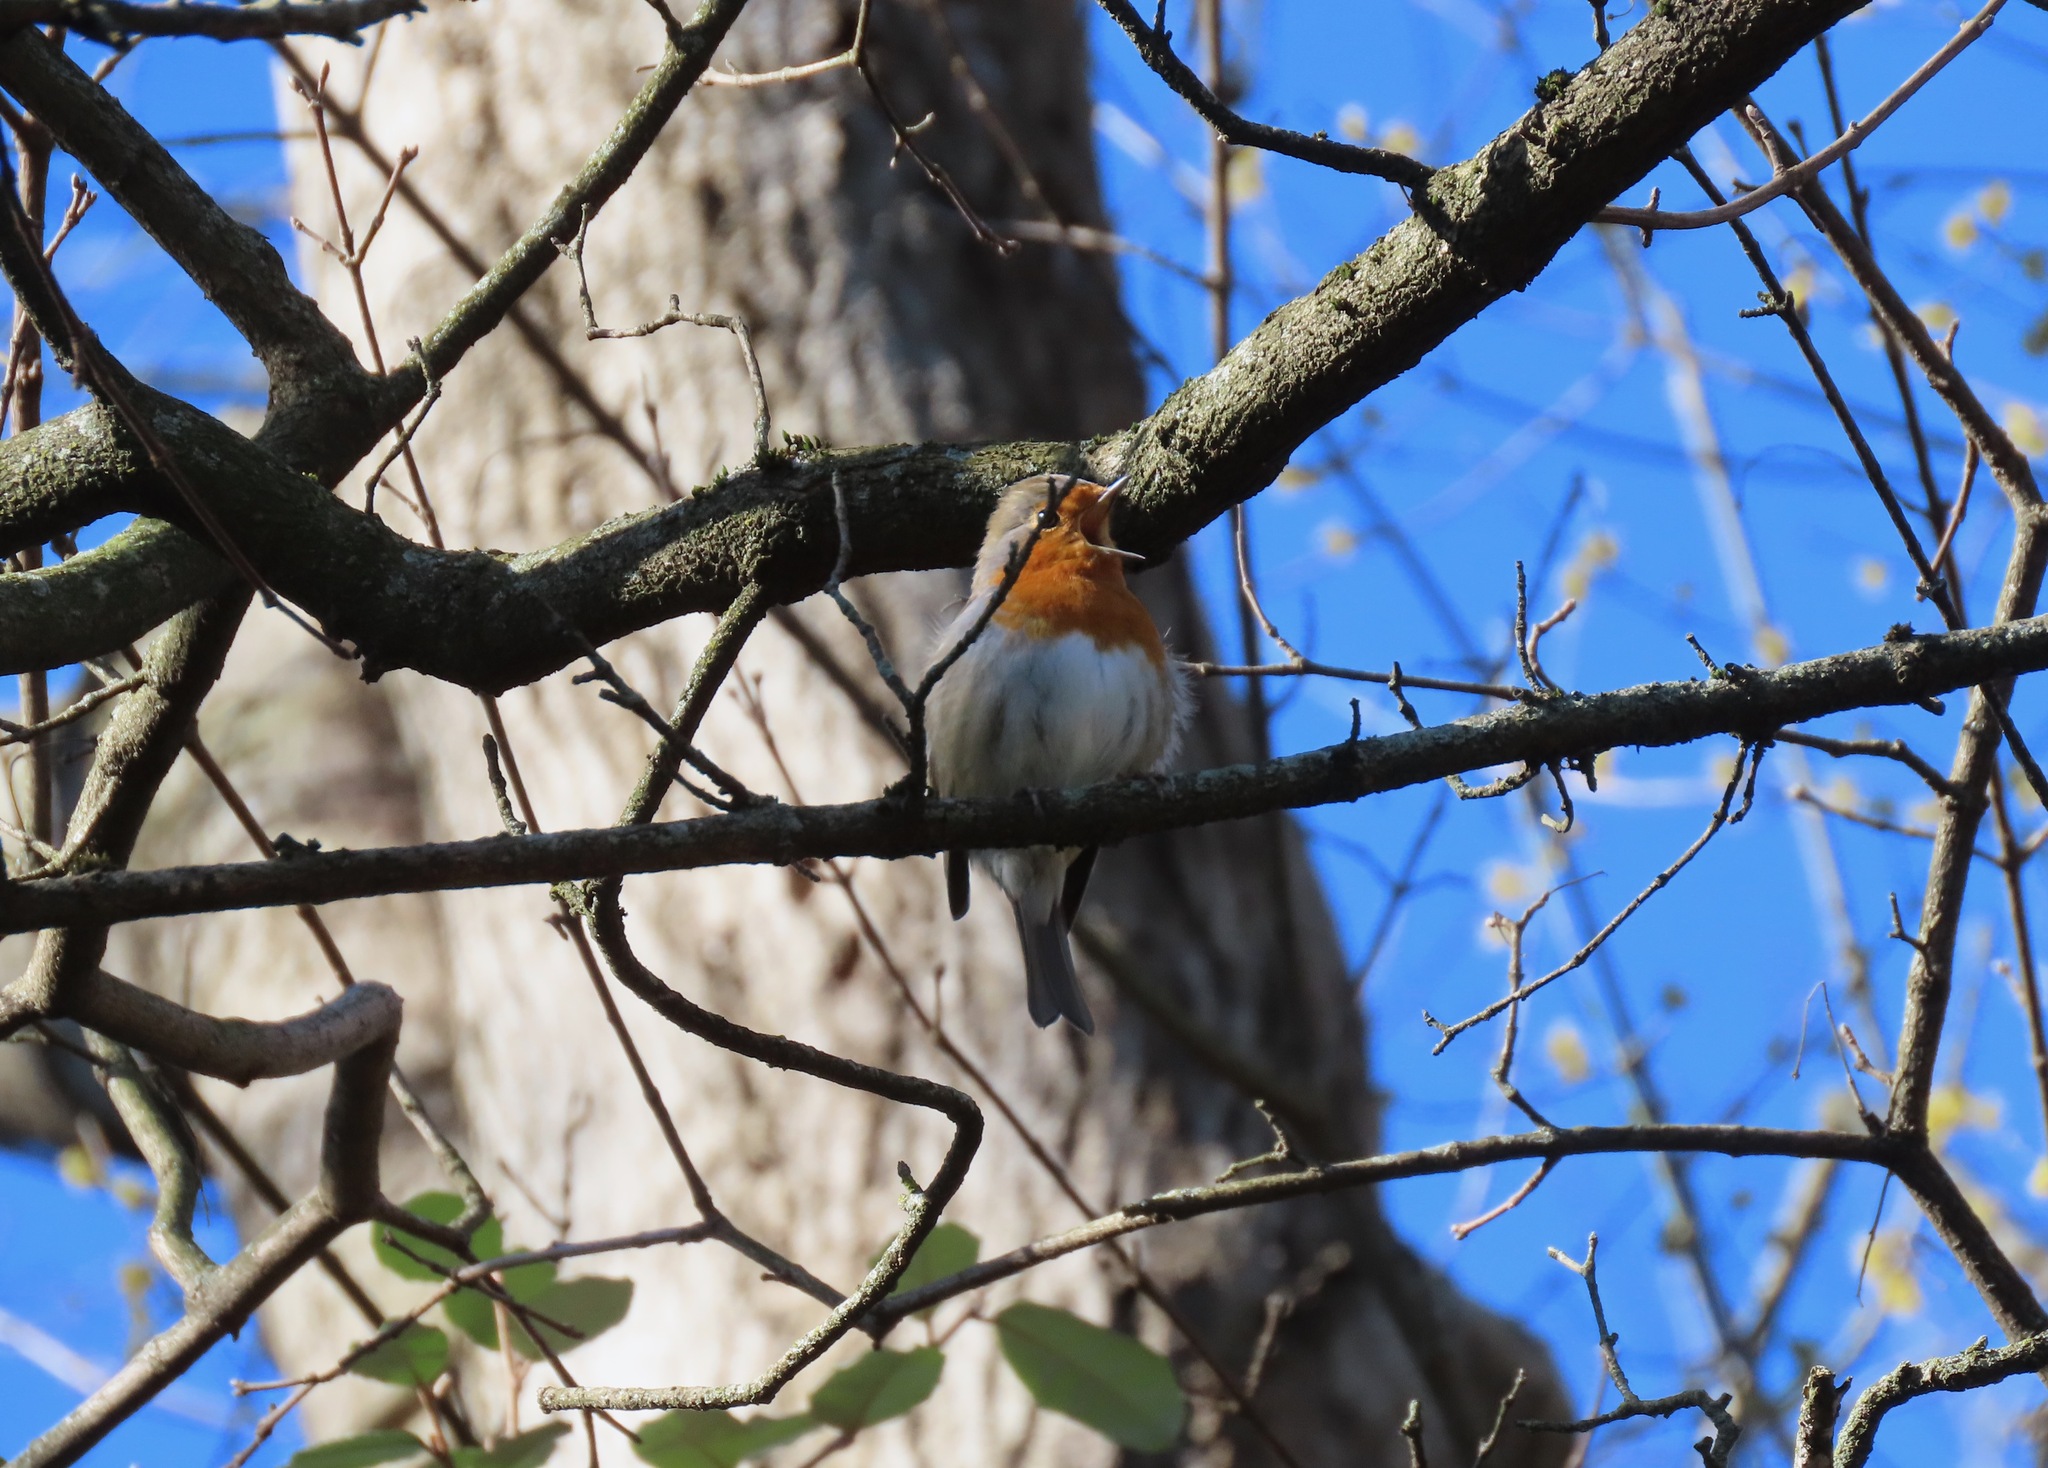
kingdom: Animalia
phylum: Chordata
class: Aves
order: Passeriformes
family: Muscicapidae
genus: Erithacus
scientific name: Erithacus rubecula
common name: European robin
